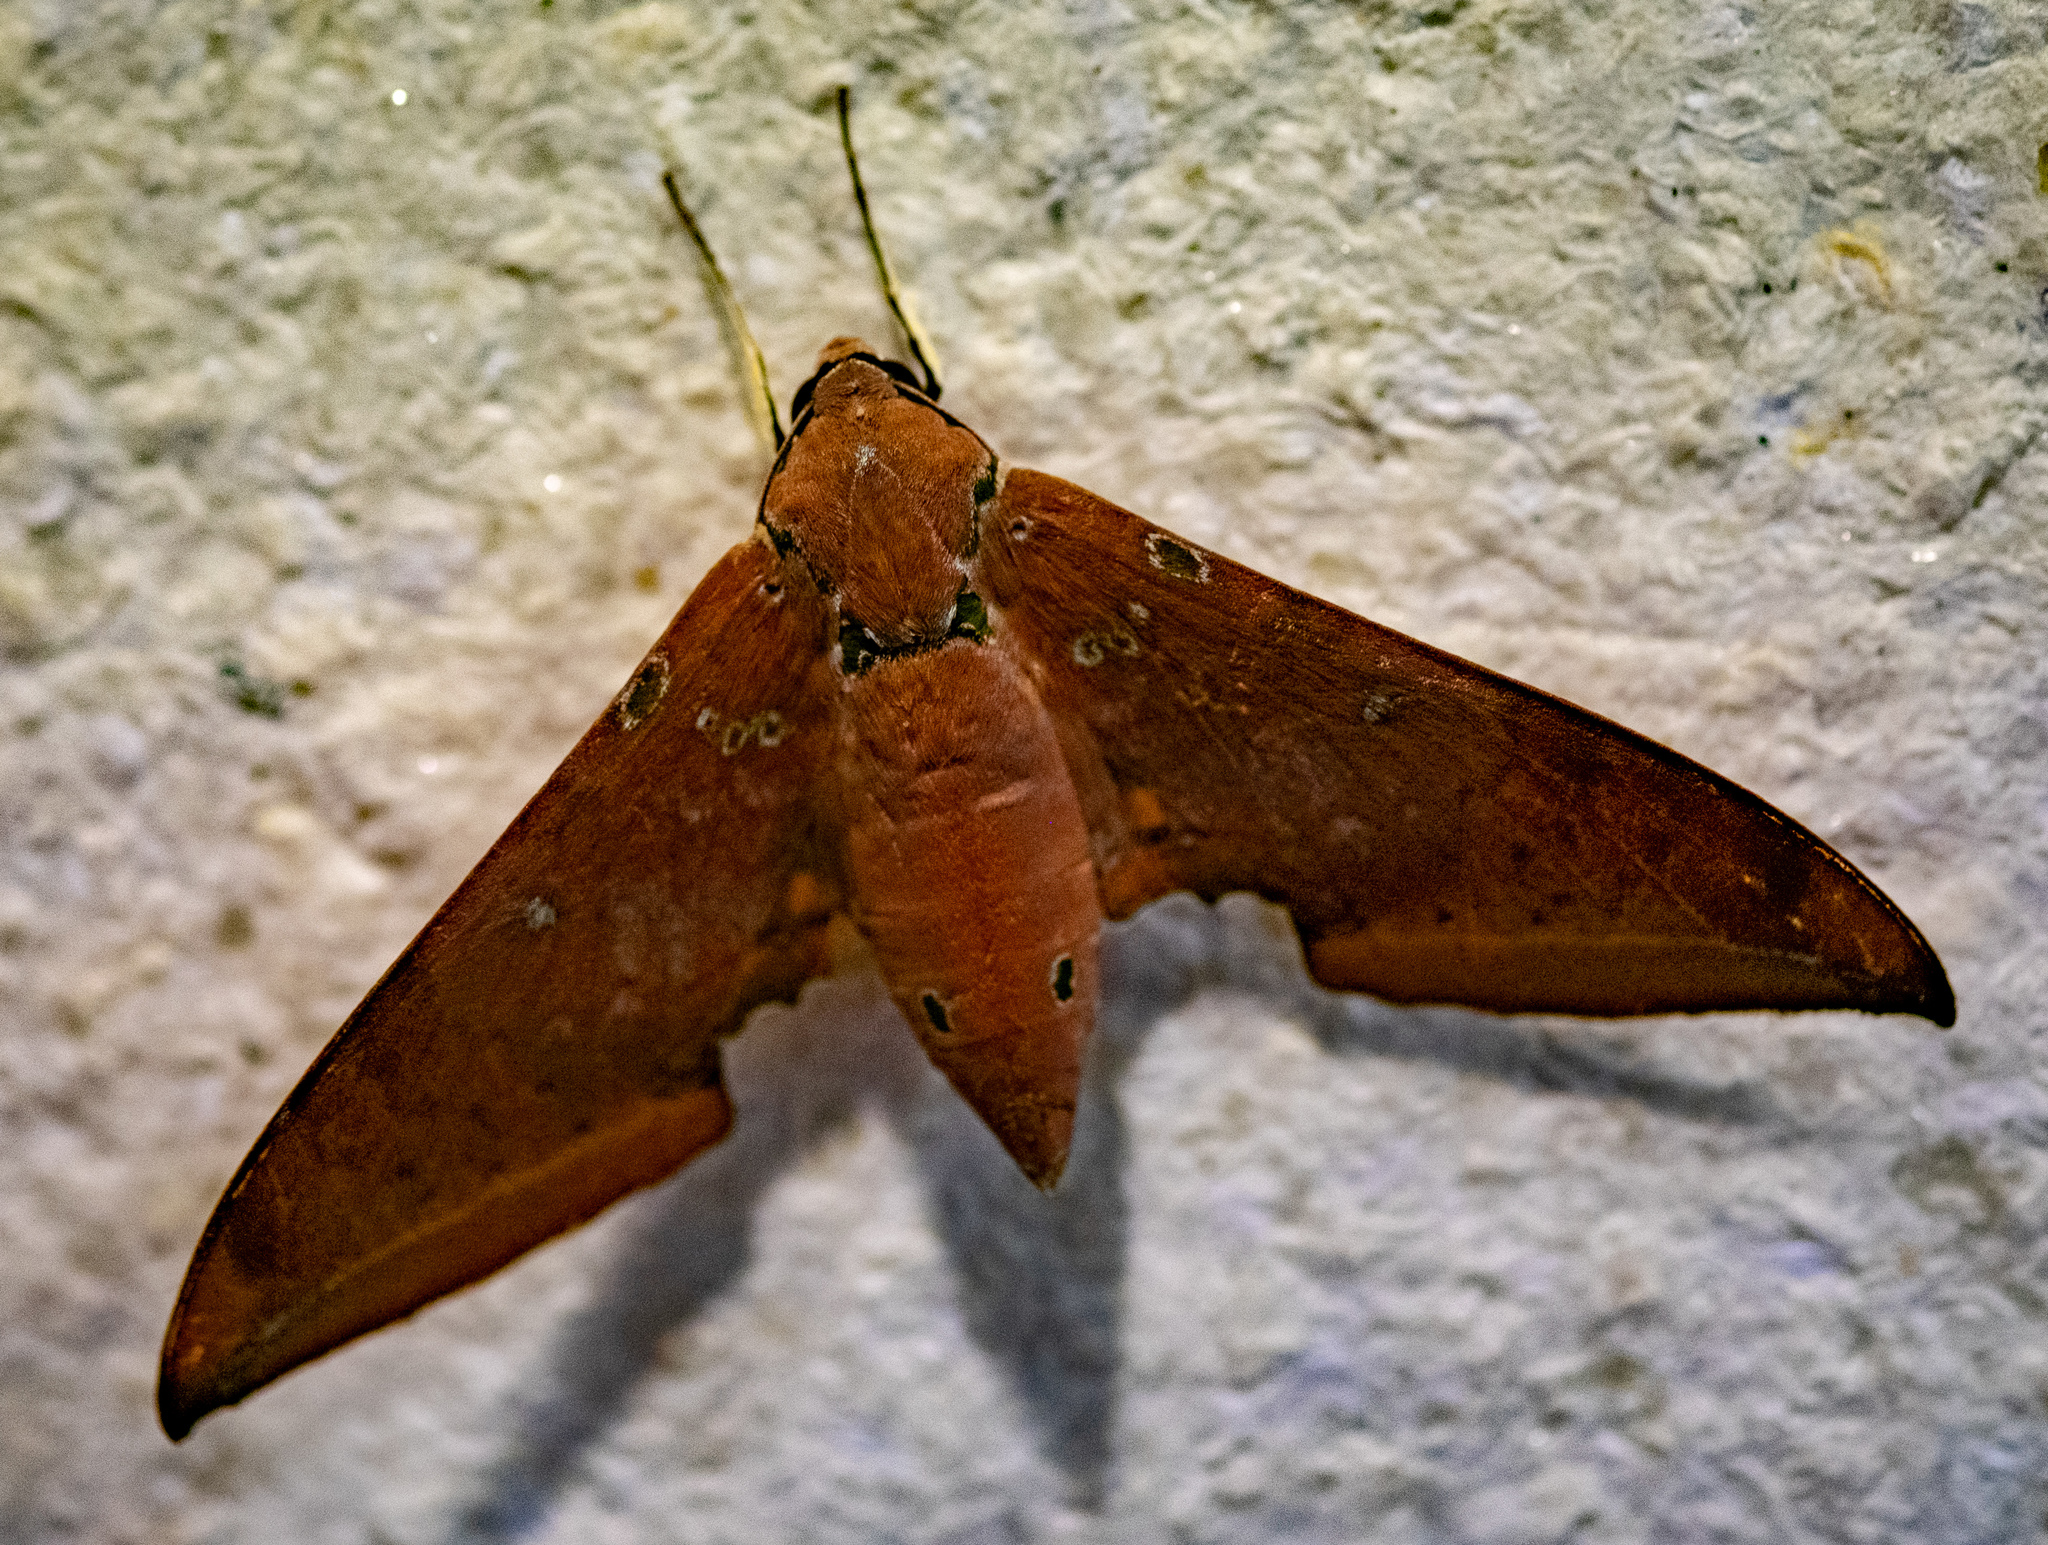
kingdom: Animalia
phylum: Arthropoda
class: Insecta
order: Lepidoptera
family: Sphingidae
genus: Ambulyx
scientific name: Ambulyx moorei
